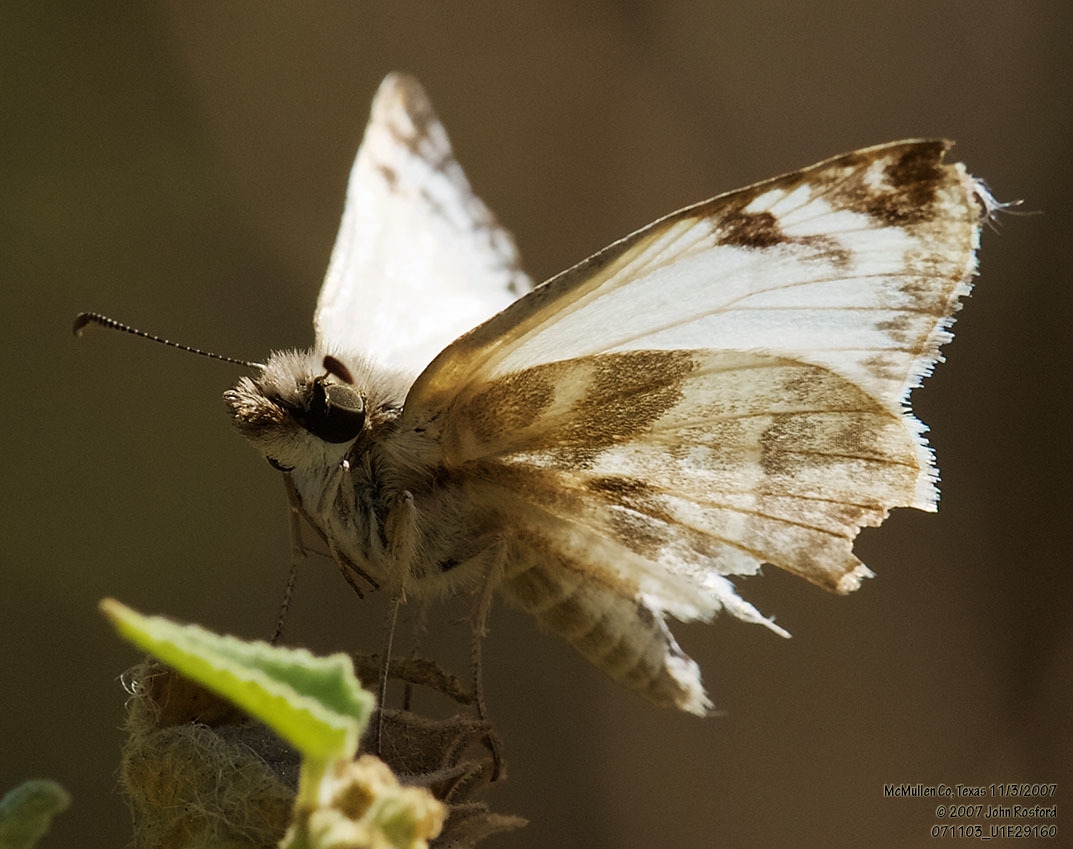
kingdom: Animalia
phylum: Arthropoda
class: Insecta
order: Lepidoptera
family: Hesperiidae
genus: Heliopetes
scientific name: Heliopetes laviana
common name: Laviana white-skipper
